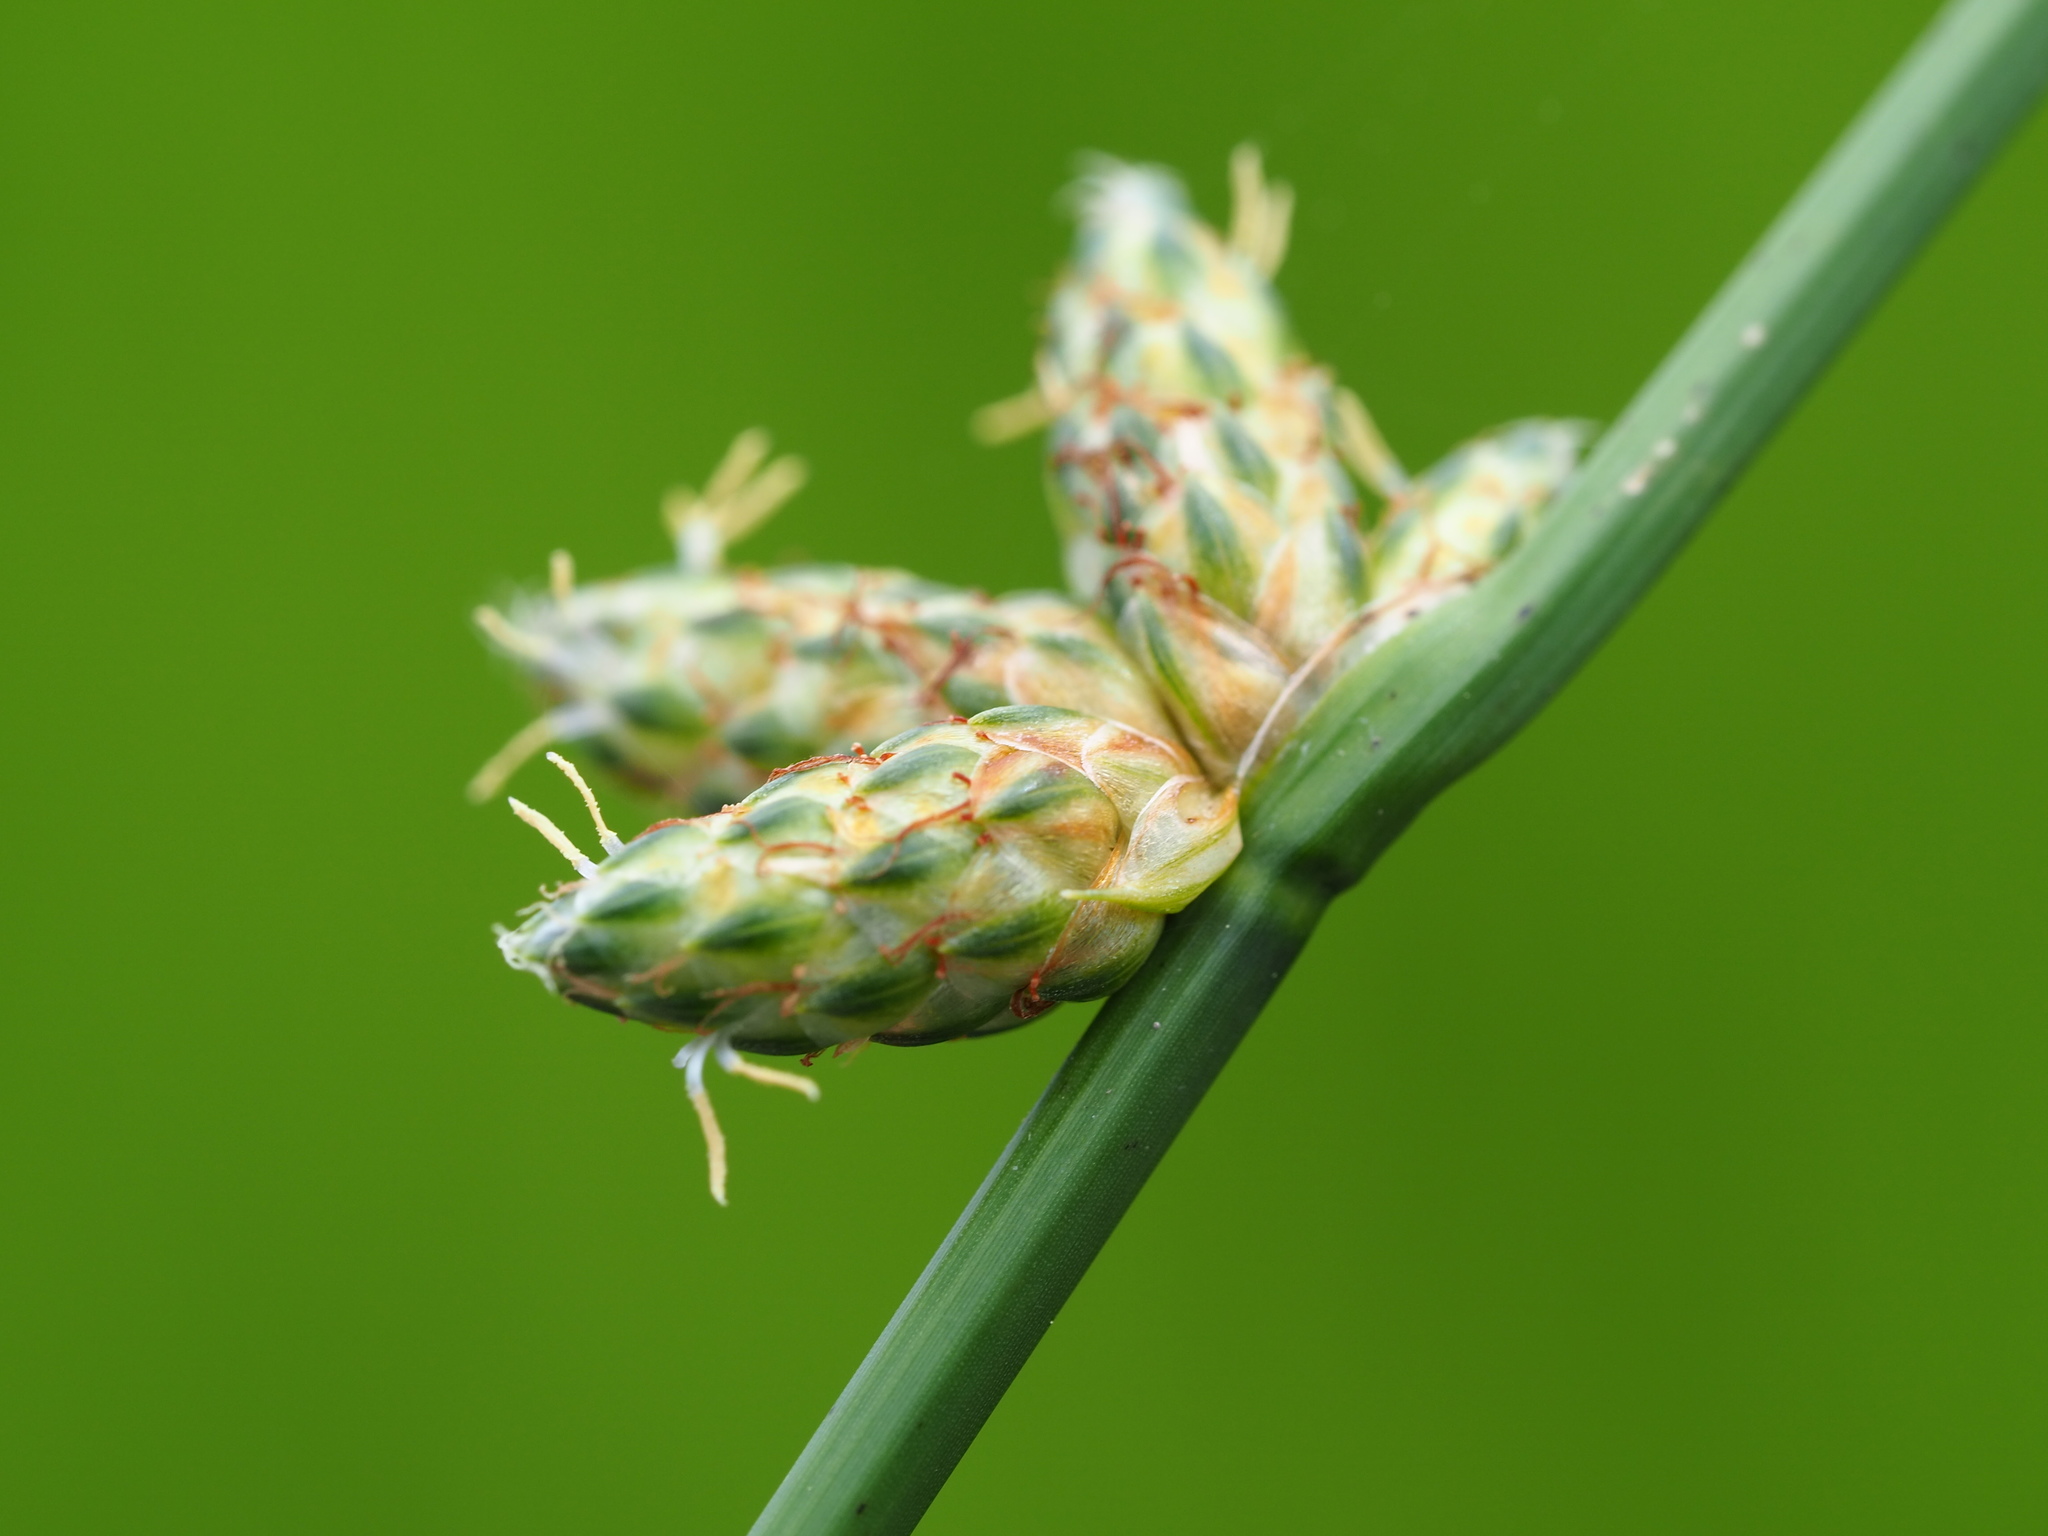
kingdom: Plantae
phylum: Tracheophyta
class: Liliopsida
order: Poales
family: Cyperaceae
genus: Schoenoplectiella
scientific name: Schoenoplectiella juncoides
